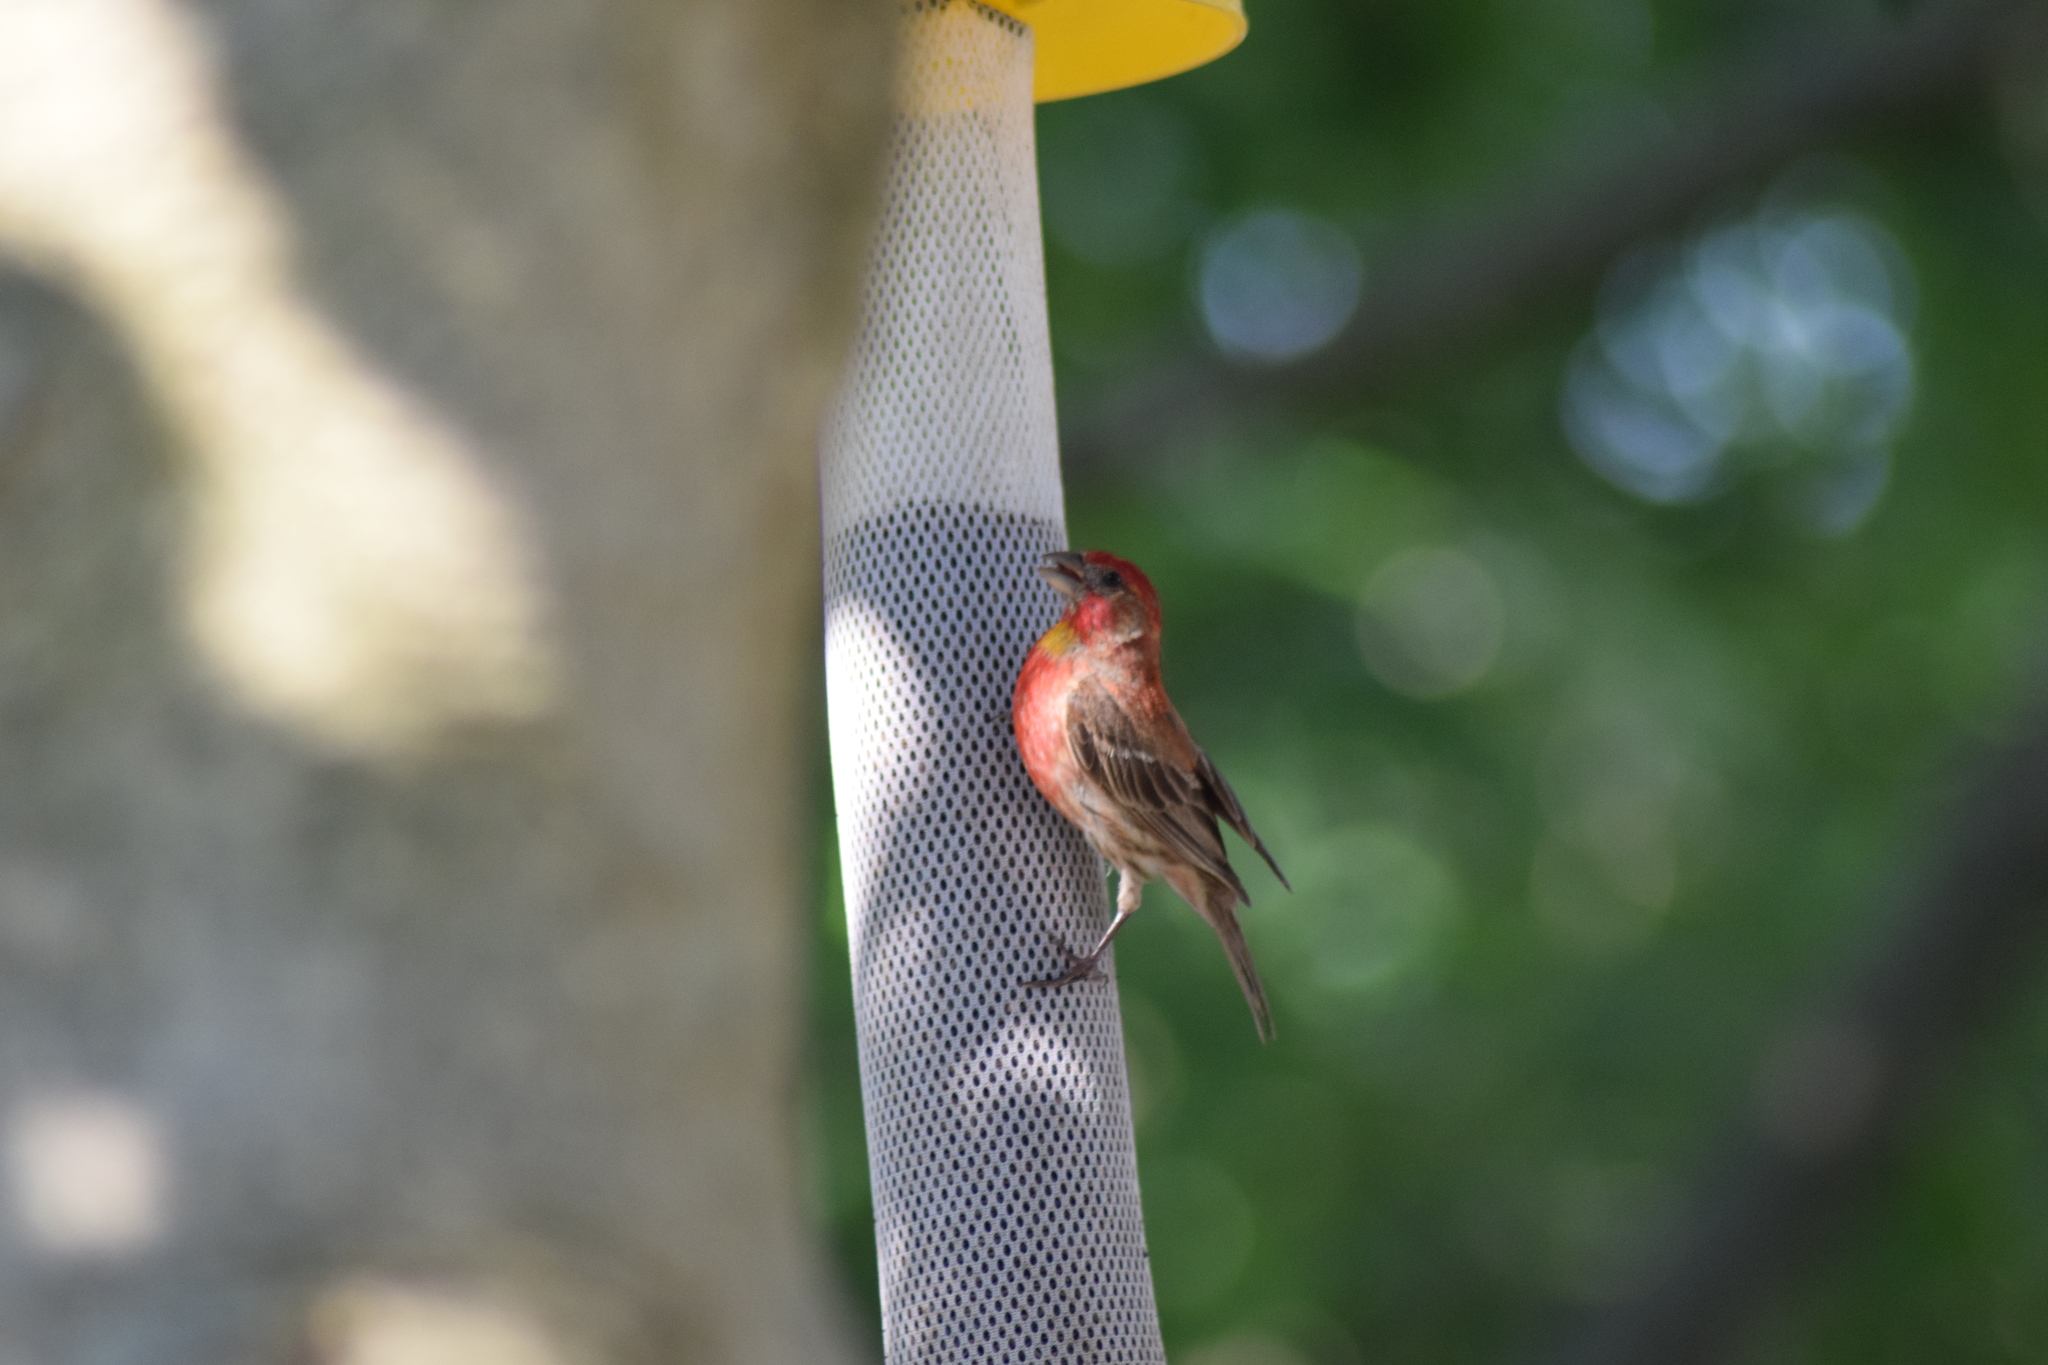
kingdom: Animalia
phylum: Chordata
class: Aves
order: Passeriformes
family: Fringillidae
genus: Haemorhous
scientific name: Haemorhous mexicanus
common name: House finch
